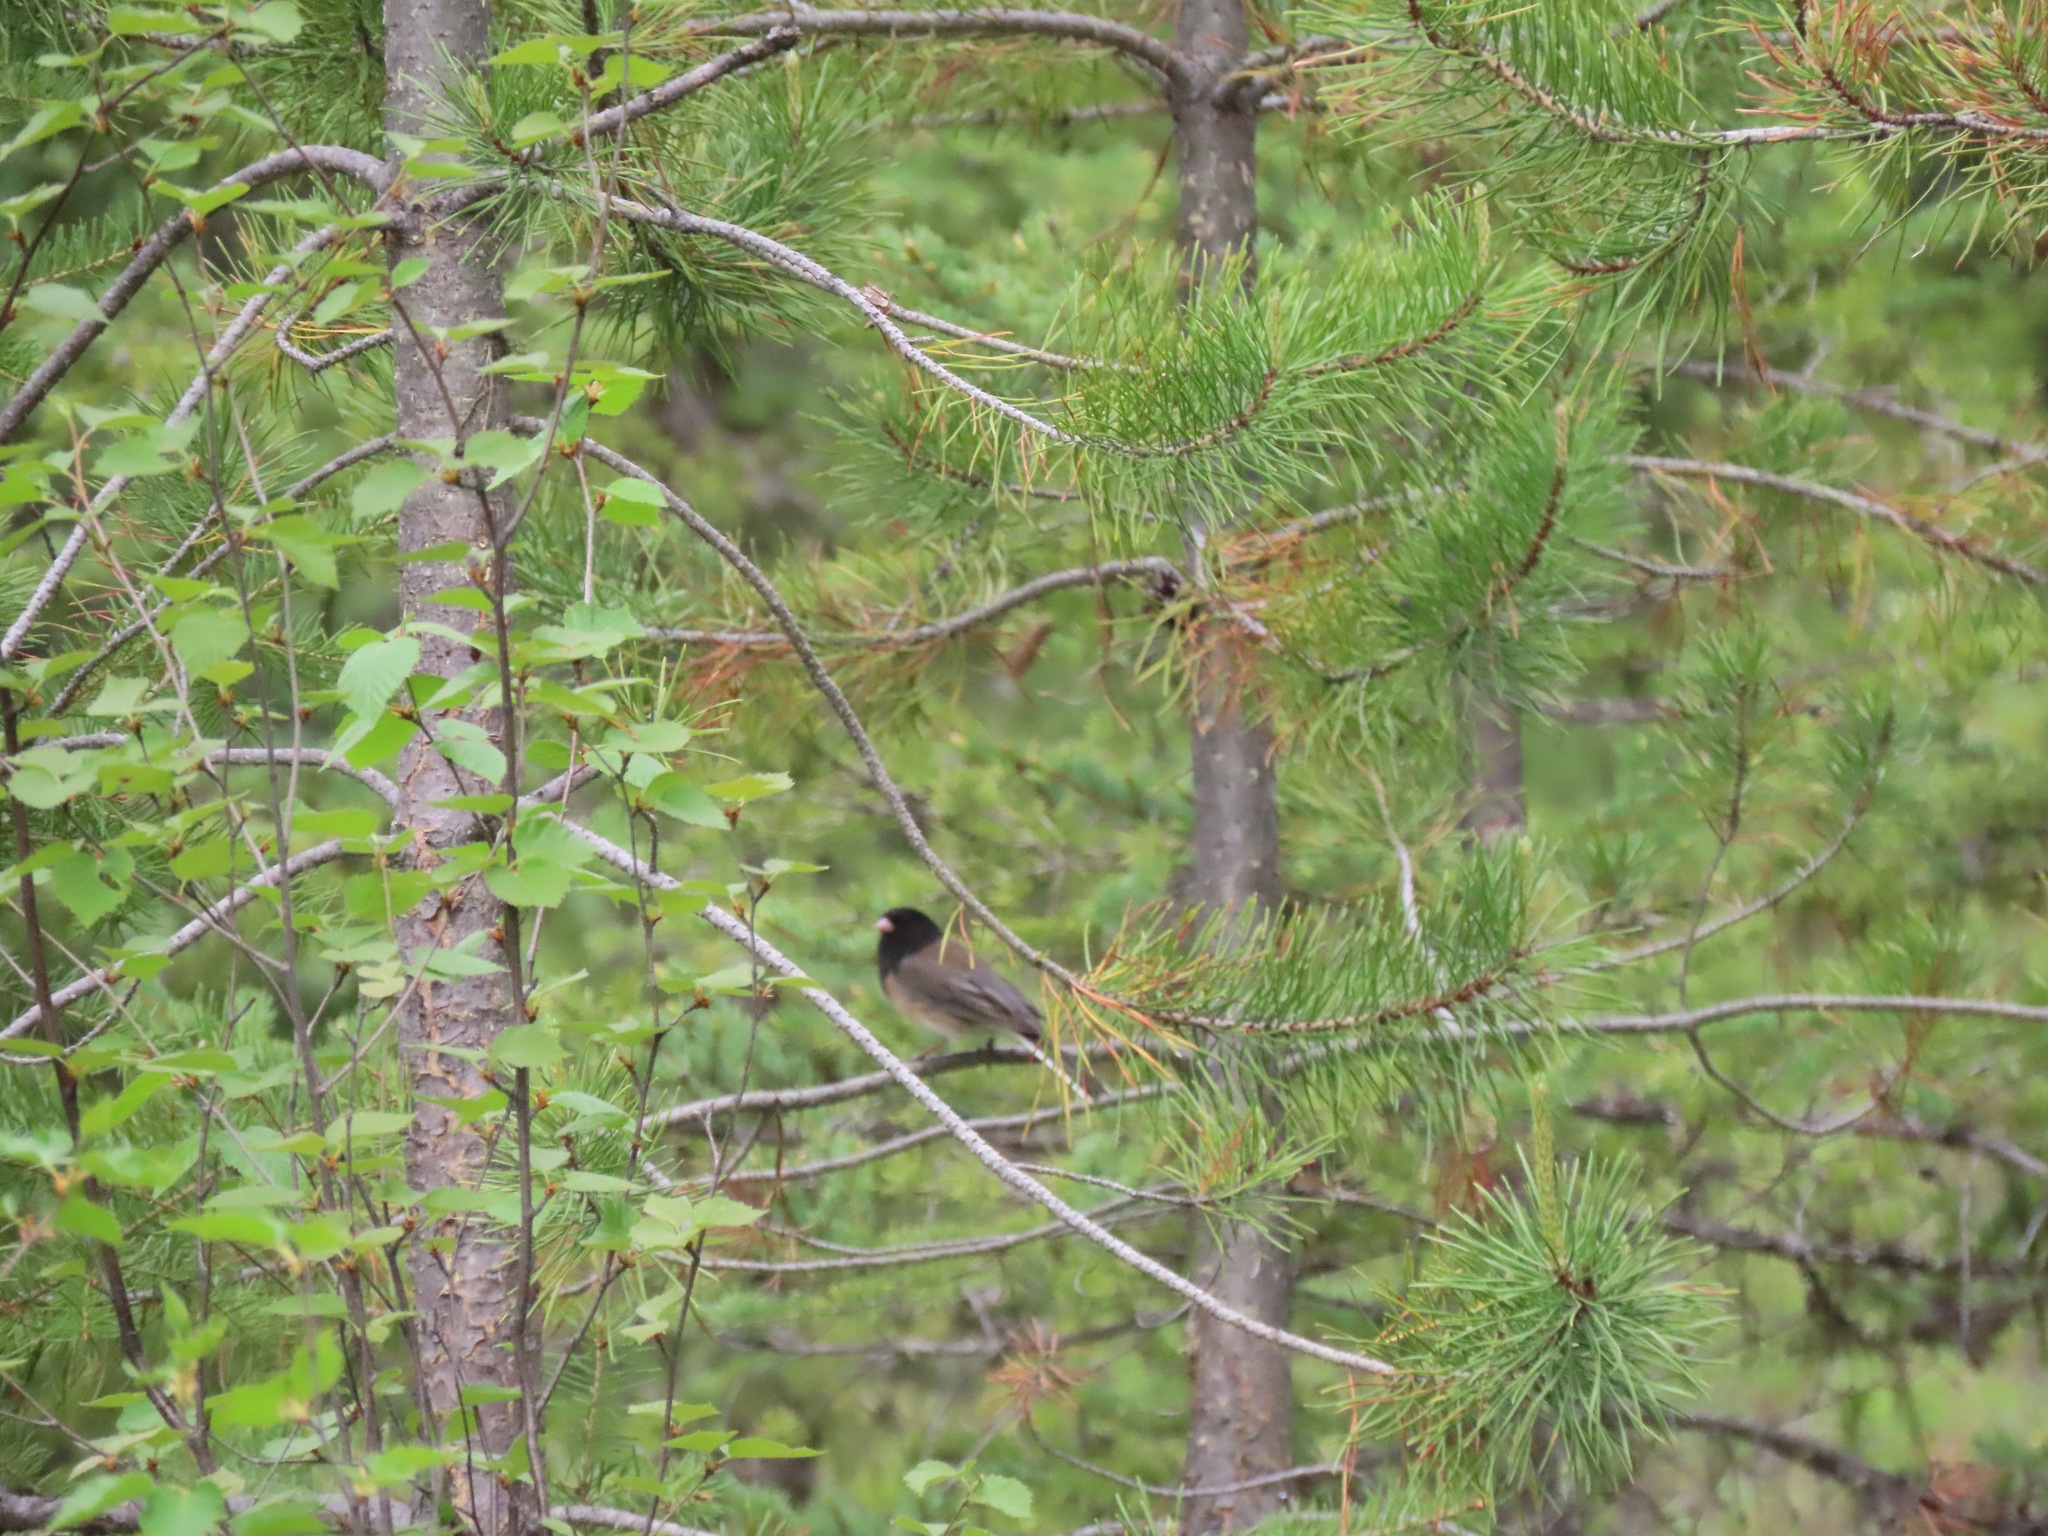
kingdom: Animalia
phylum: Chordata
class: Aves
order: Passeriformes
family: Passerellidae
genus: Junco
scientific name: Junco hyemalis
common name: Dark-eyed junco
